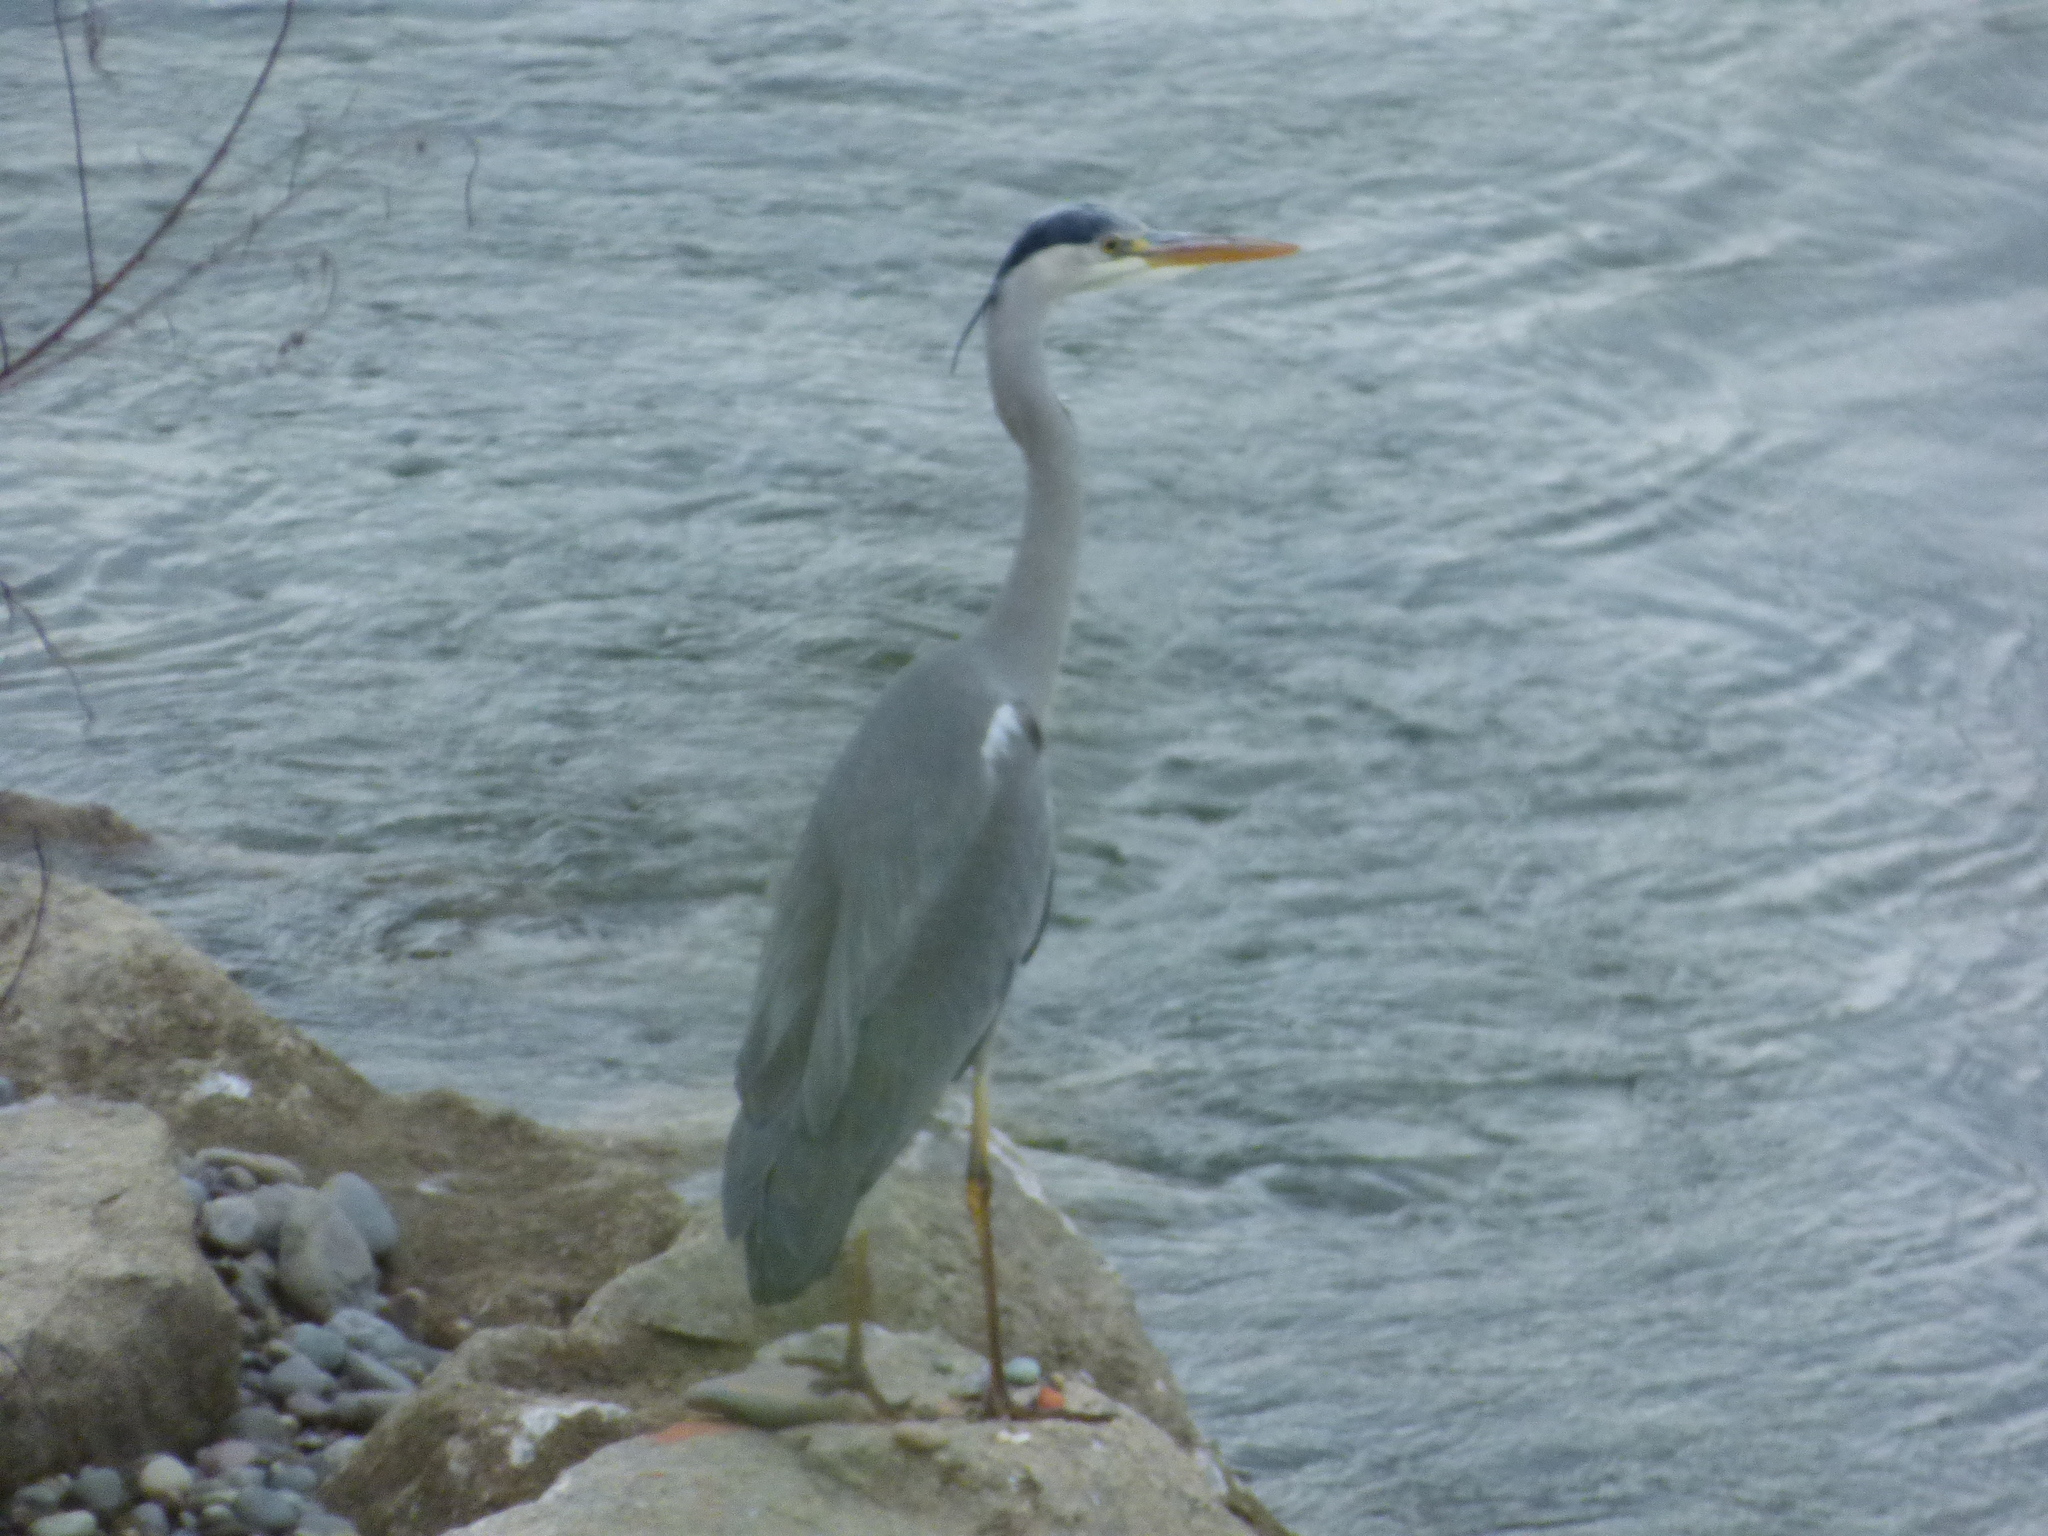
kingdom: Animalia
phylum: Chordata
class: Aves
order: Pelecaniformes
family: Ardeidae
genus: Ardea
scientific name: Ardea cinerea
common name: Grey heron
